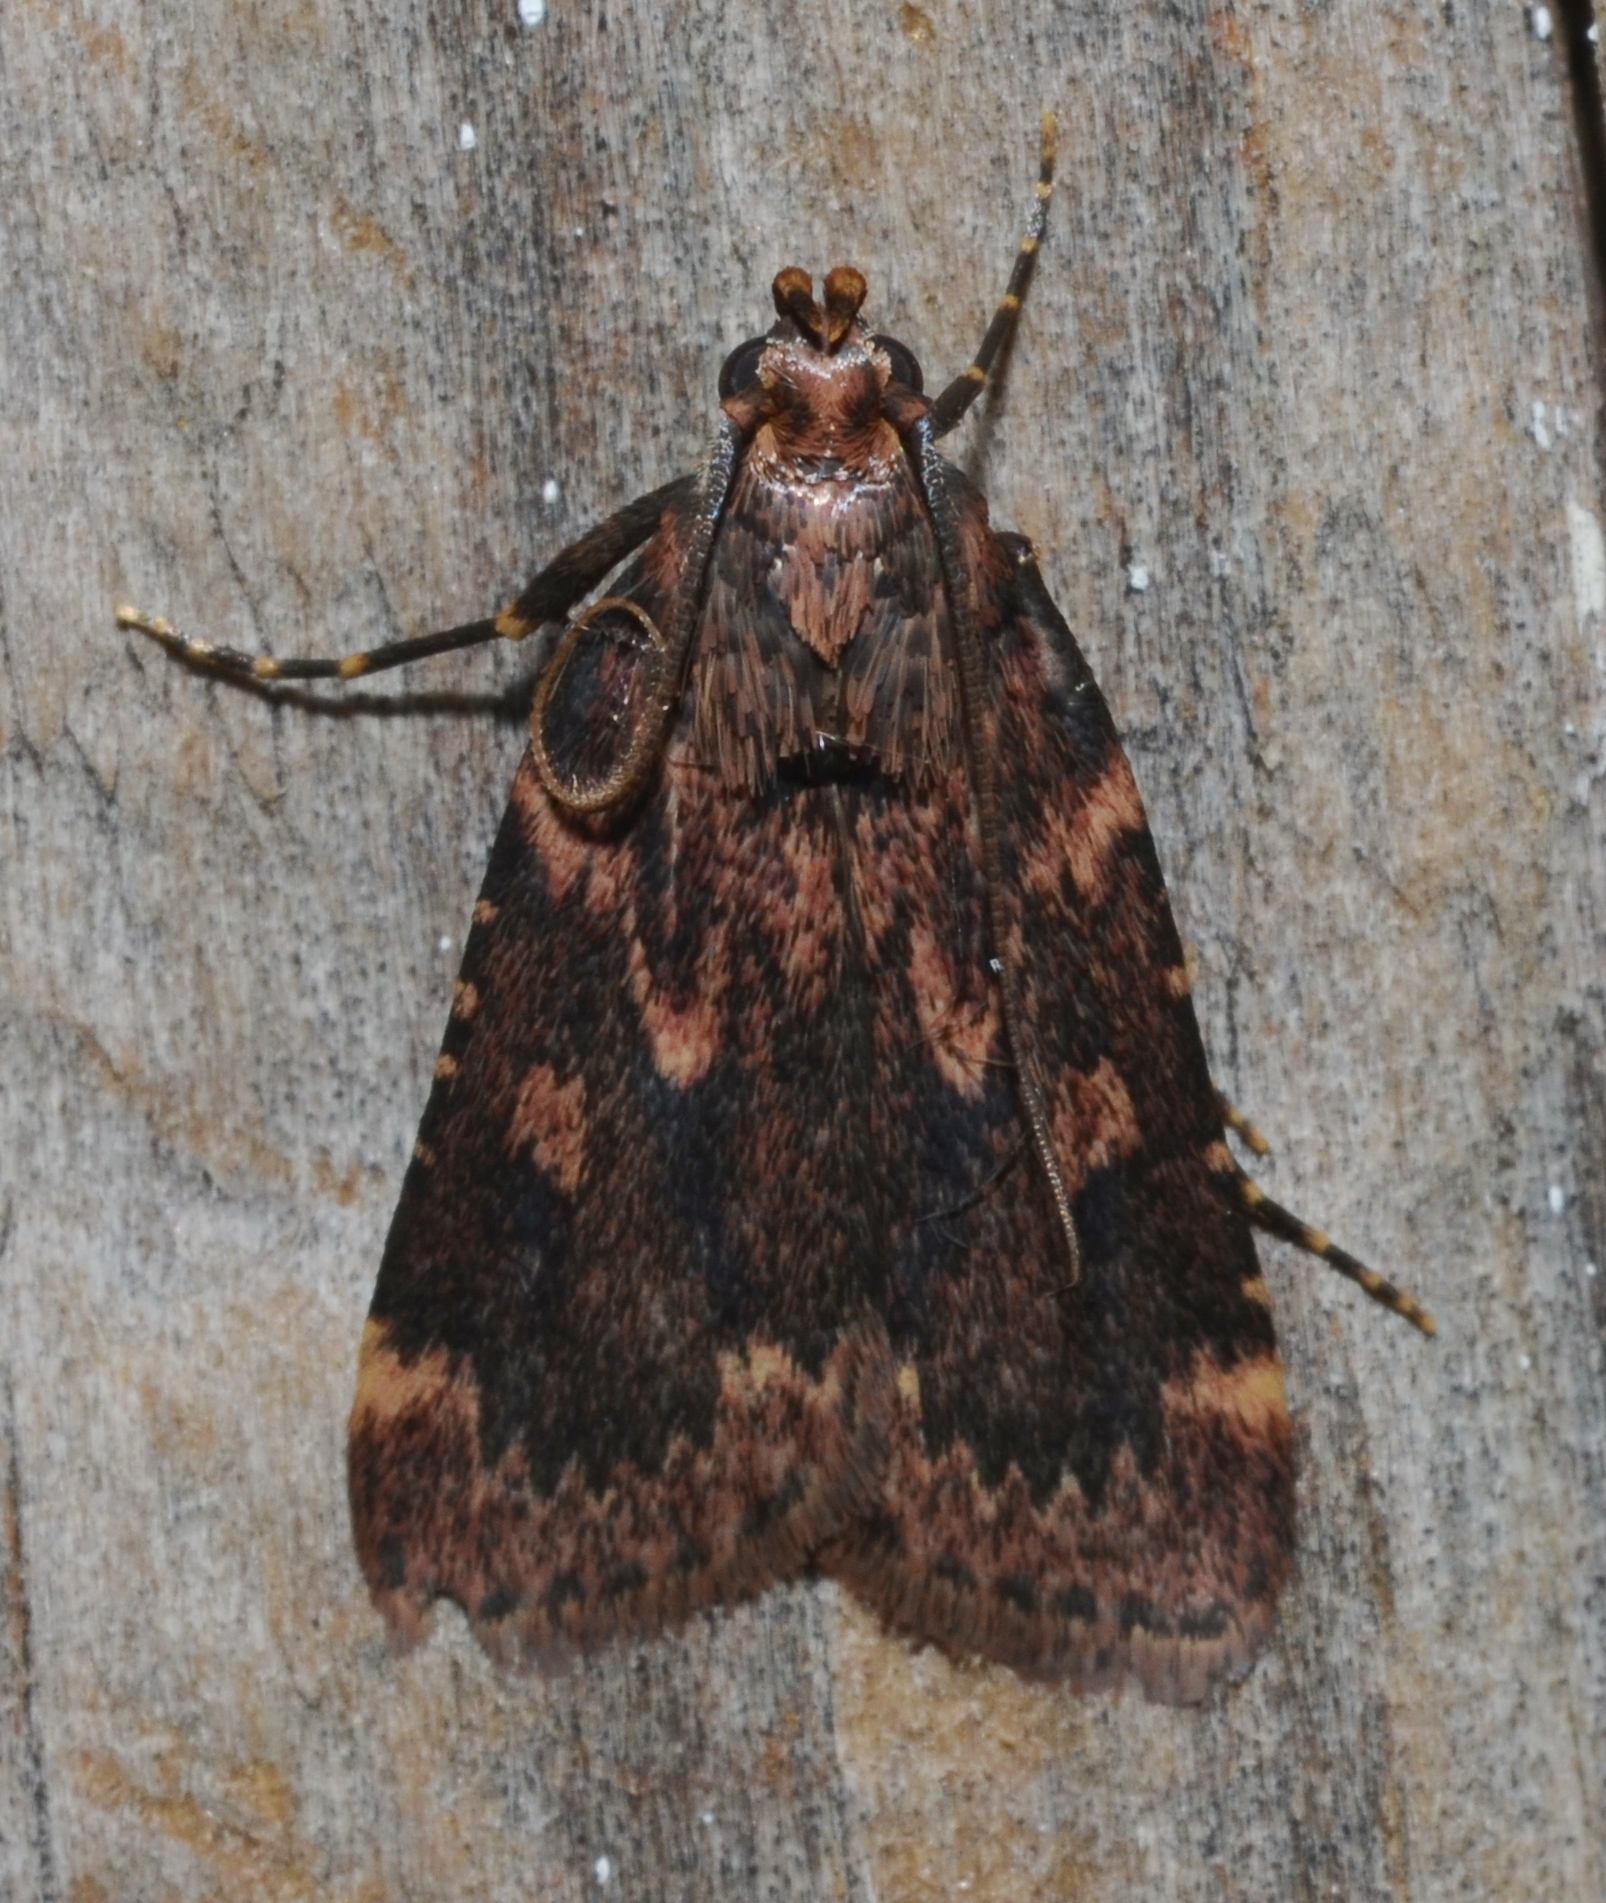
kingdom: Animalia
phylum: Arthropoda
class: Insecta
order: Lepidoptera
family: Pyralidae
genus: Aglossa
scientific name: Aglossa cuprina
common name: Grease moth
